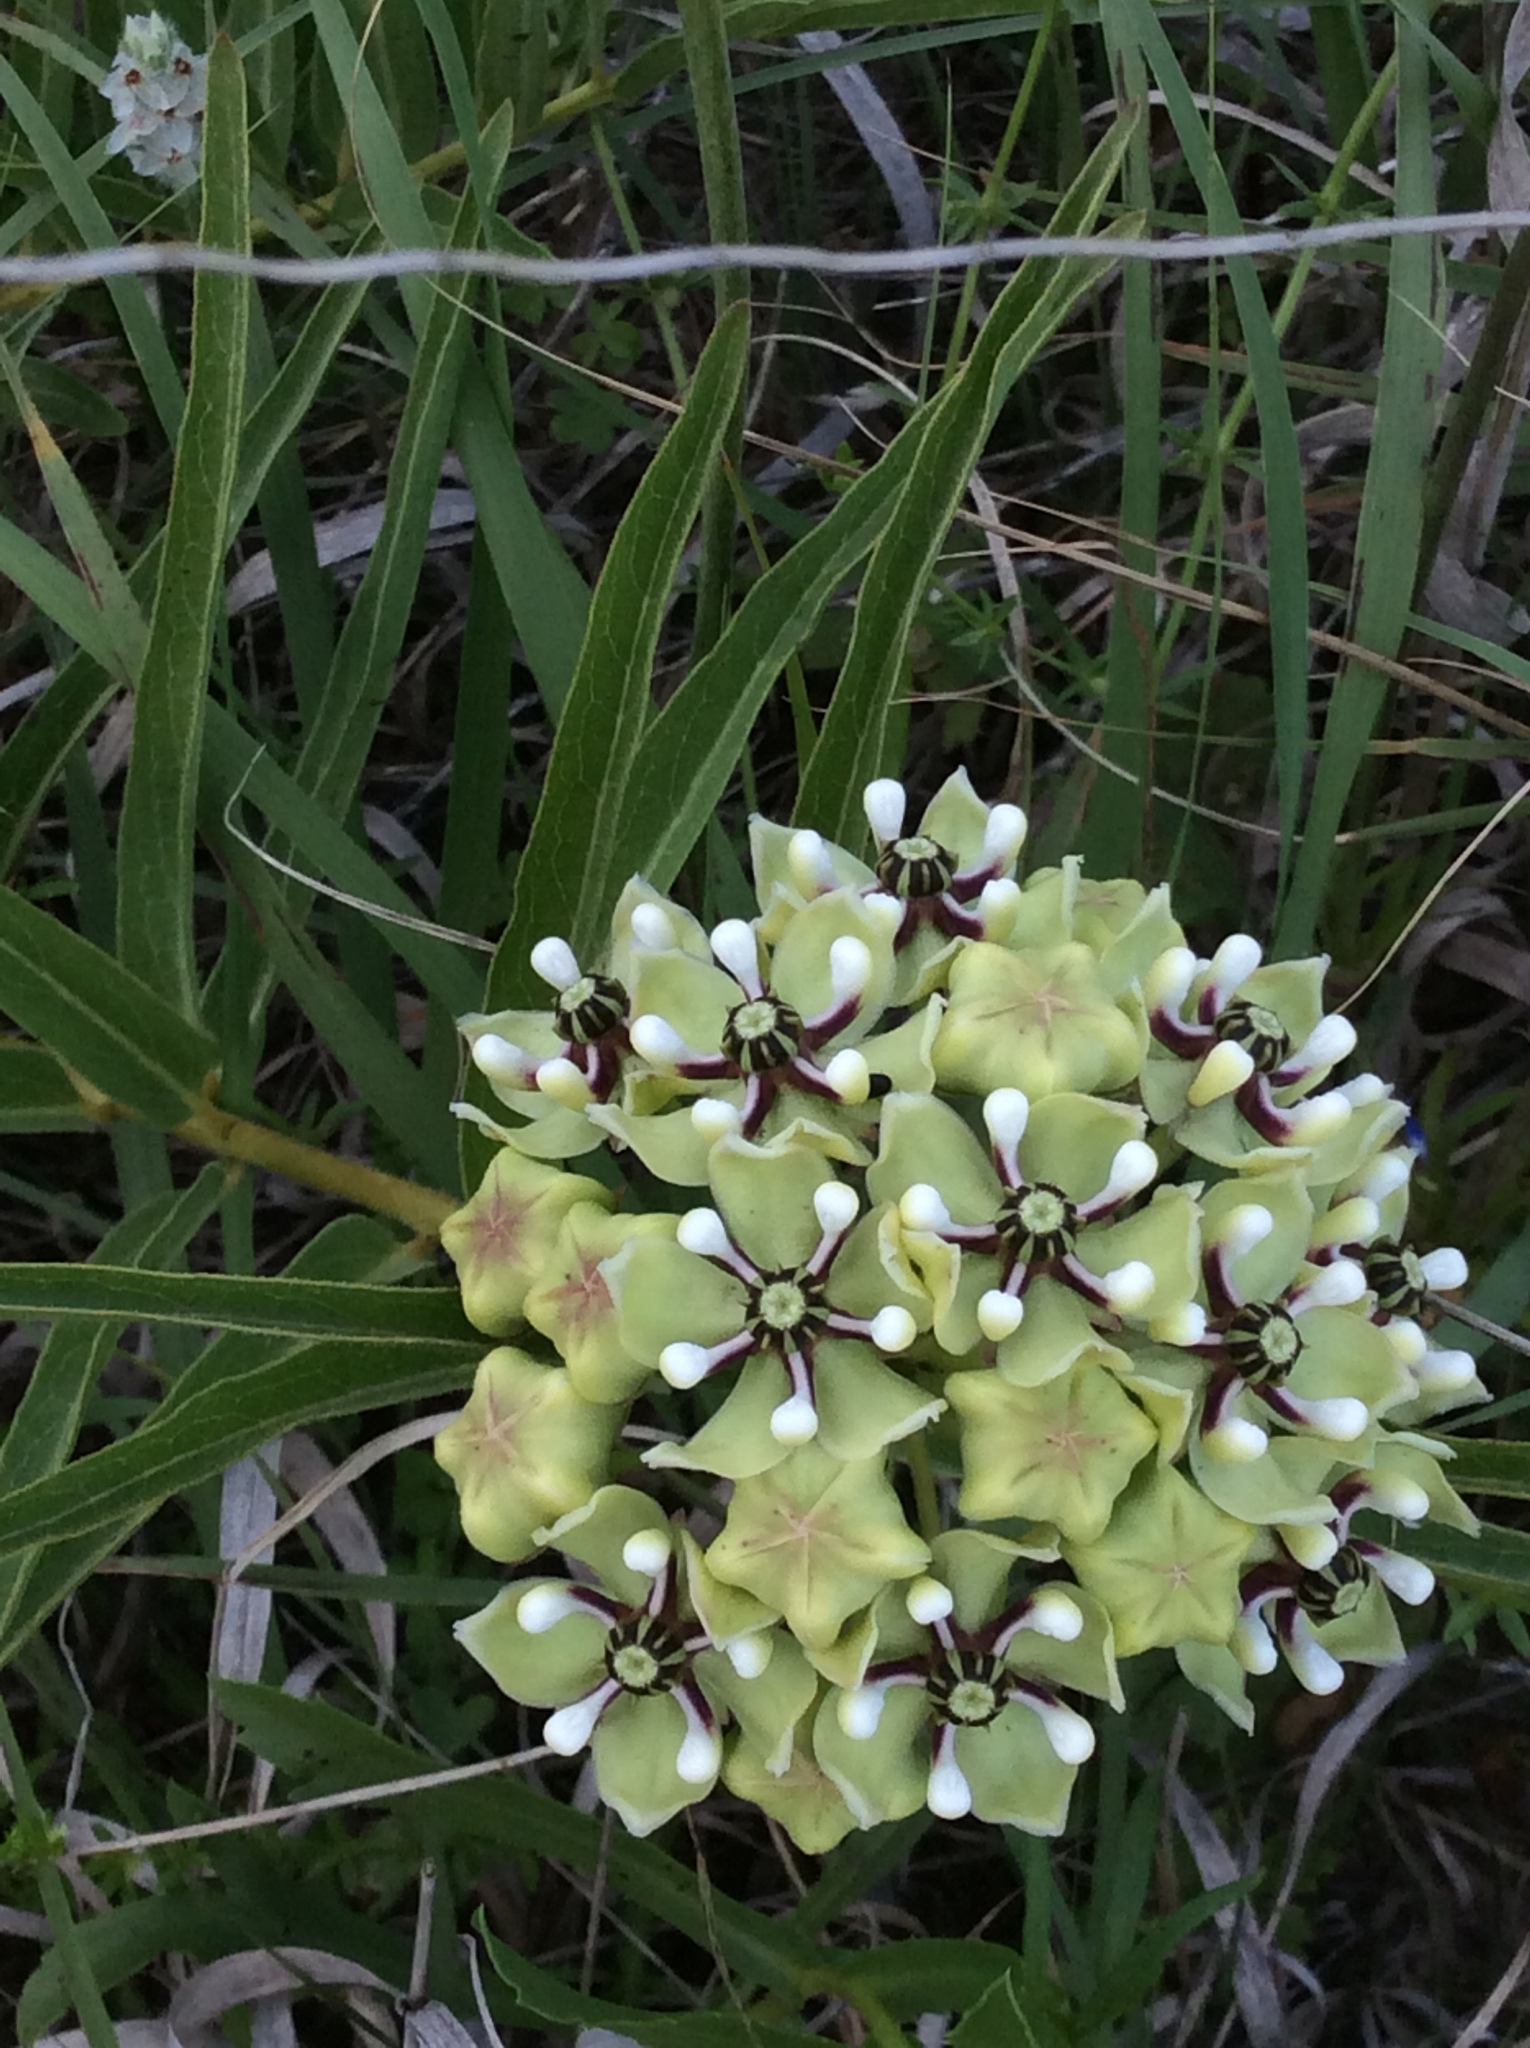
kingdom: Plantae
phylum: Tracheophyta
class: Magnoliopsida
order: Gentianales
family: Apocynaceae
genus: Asclepias
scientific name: Asclepias asperula
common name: Antelope horns
